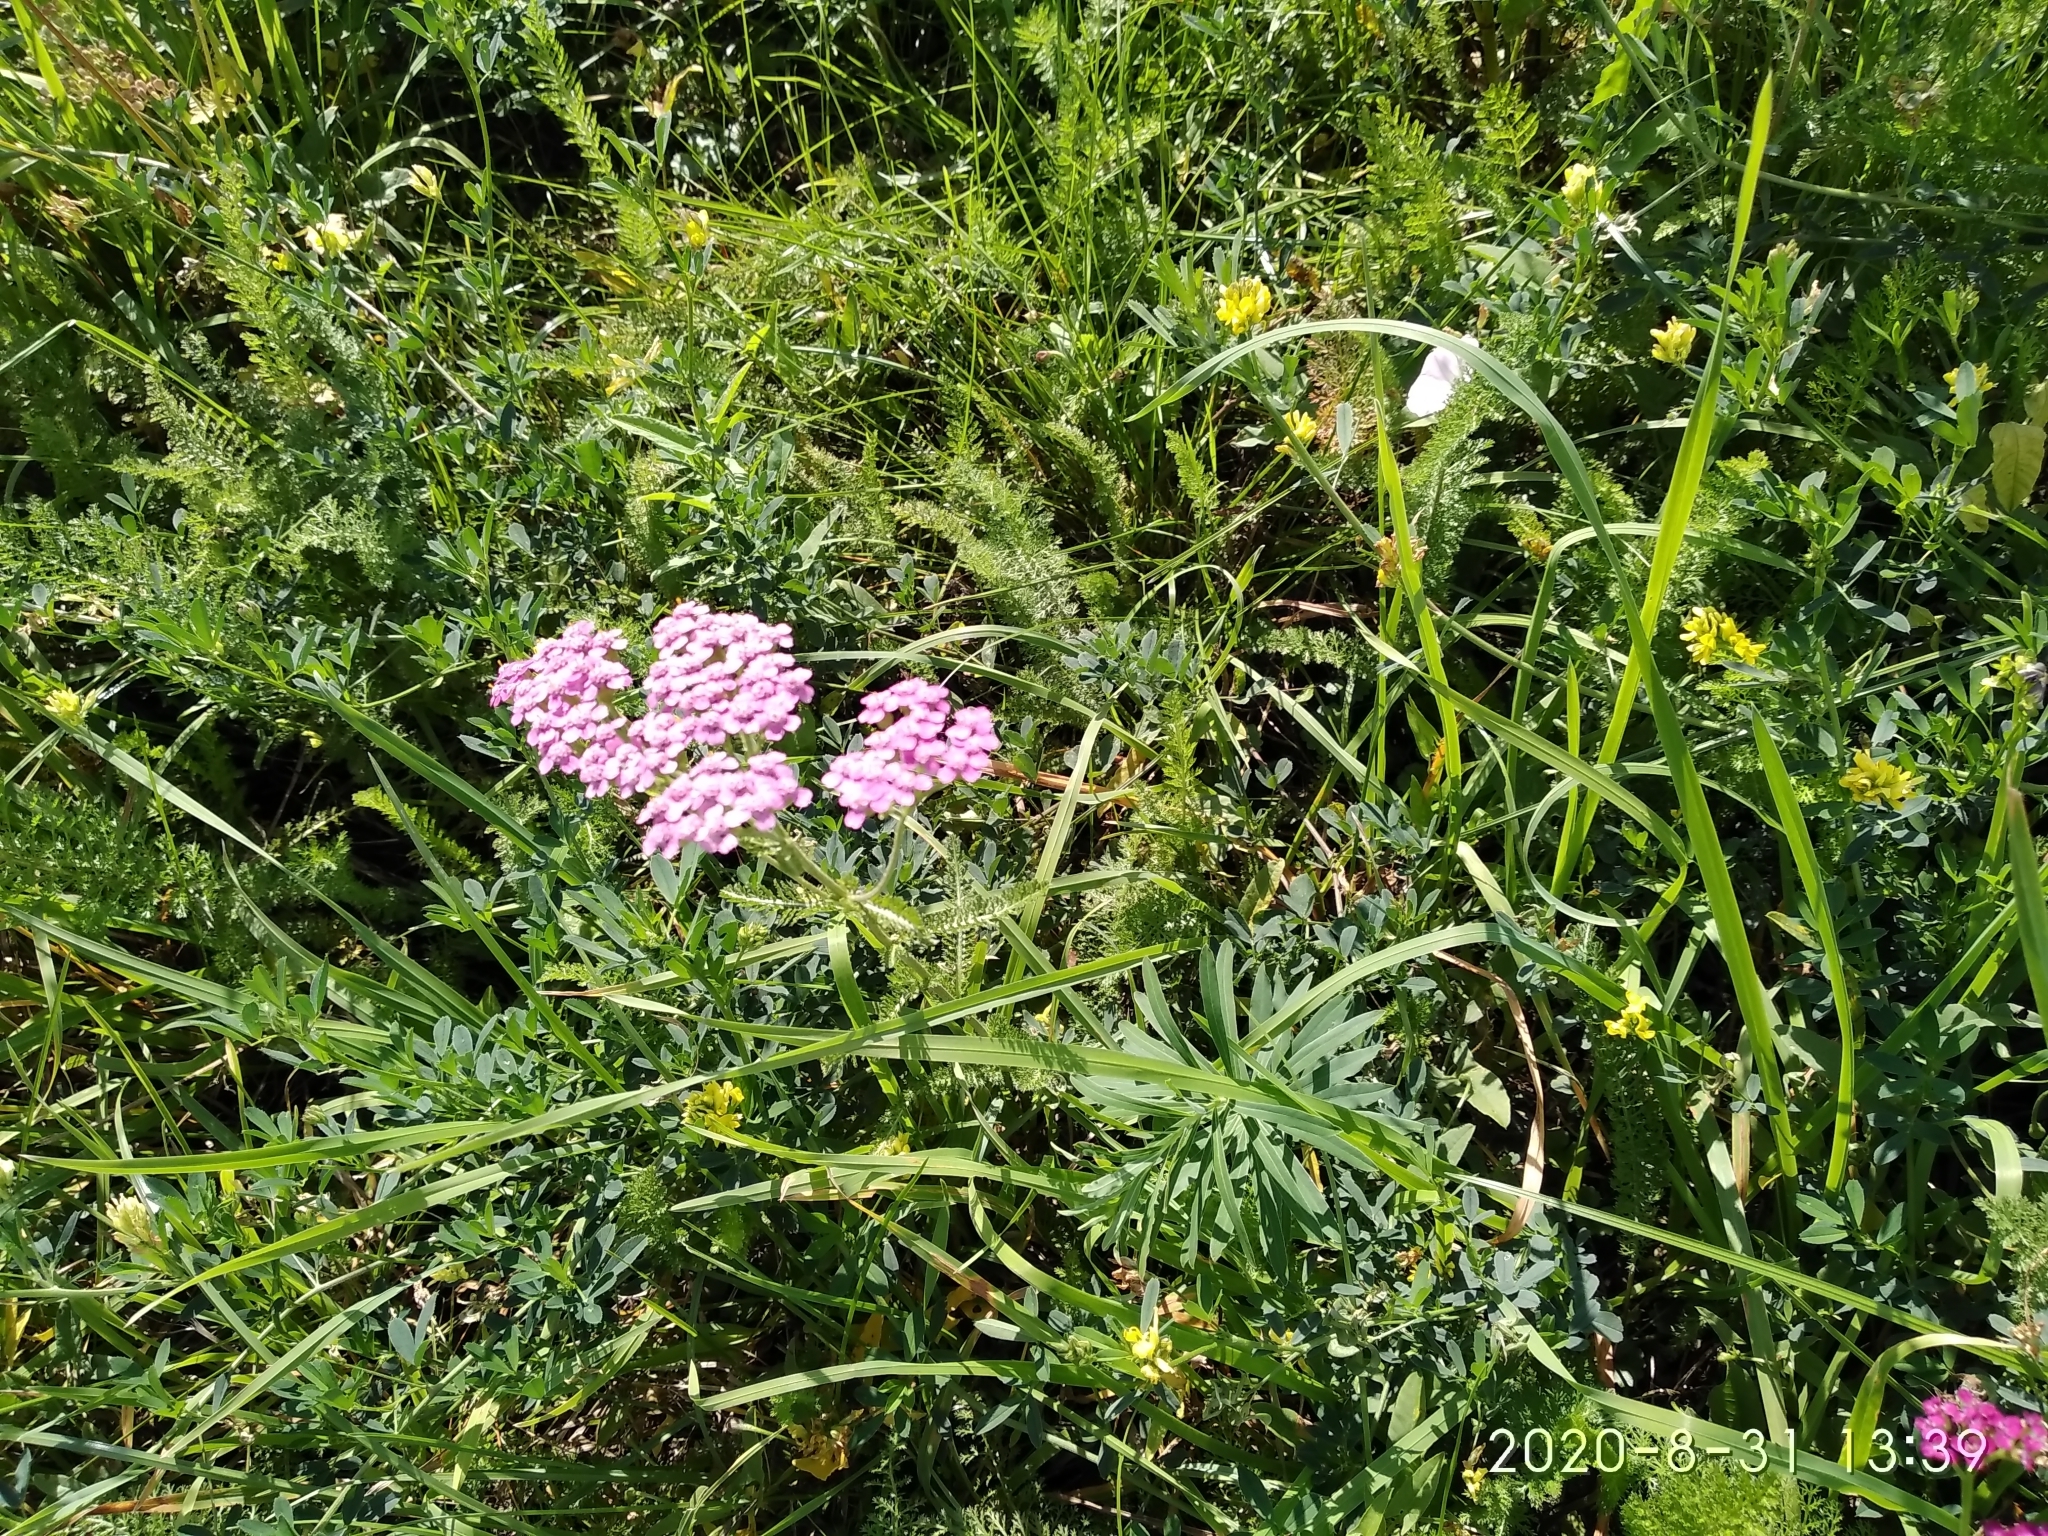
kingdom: Plantae
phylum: Tracheophyta
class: Magnoliopsida
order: Asterales
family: Asteraceae
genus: Achillea
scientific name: Achillea millefolium
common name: Yarrow
